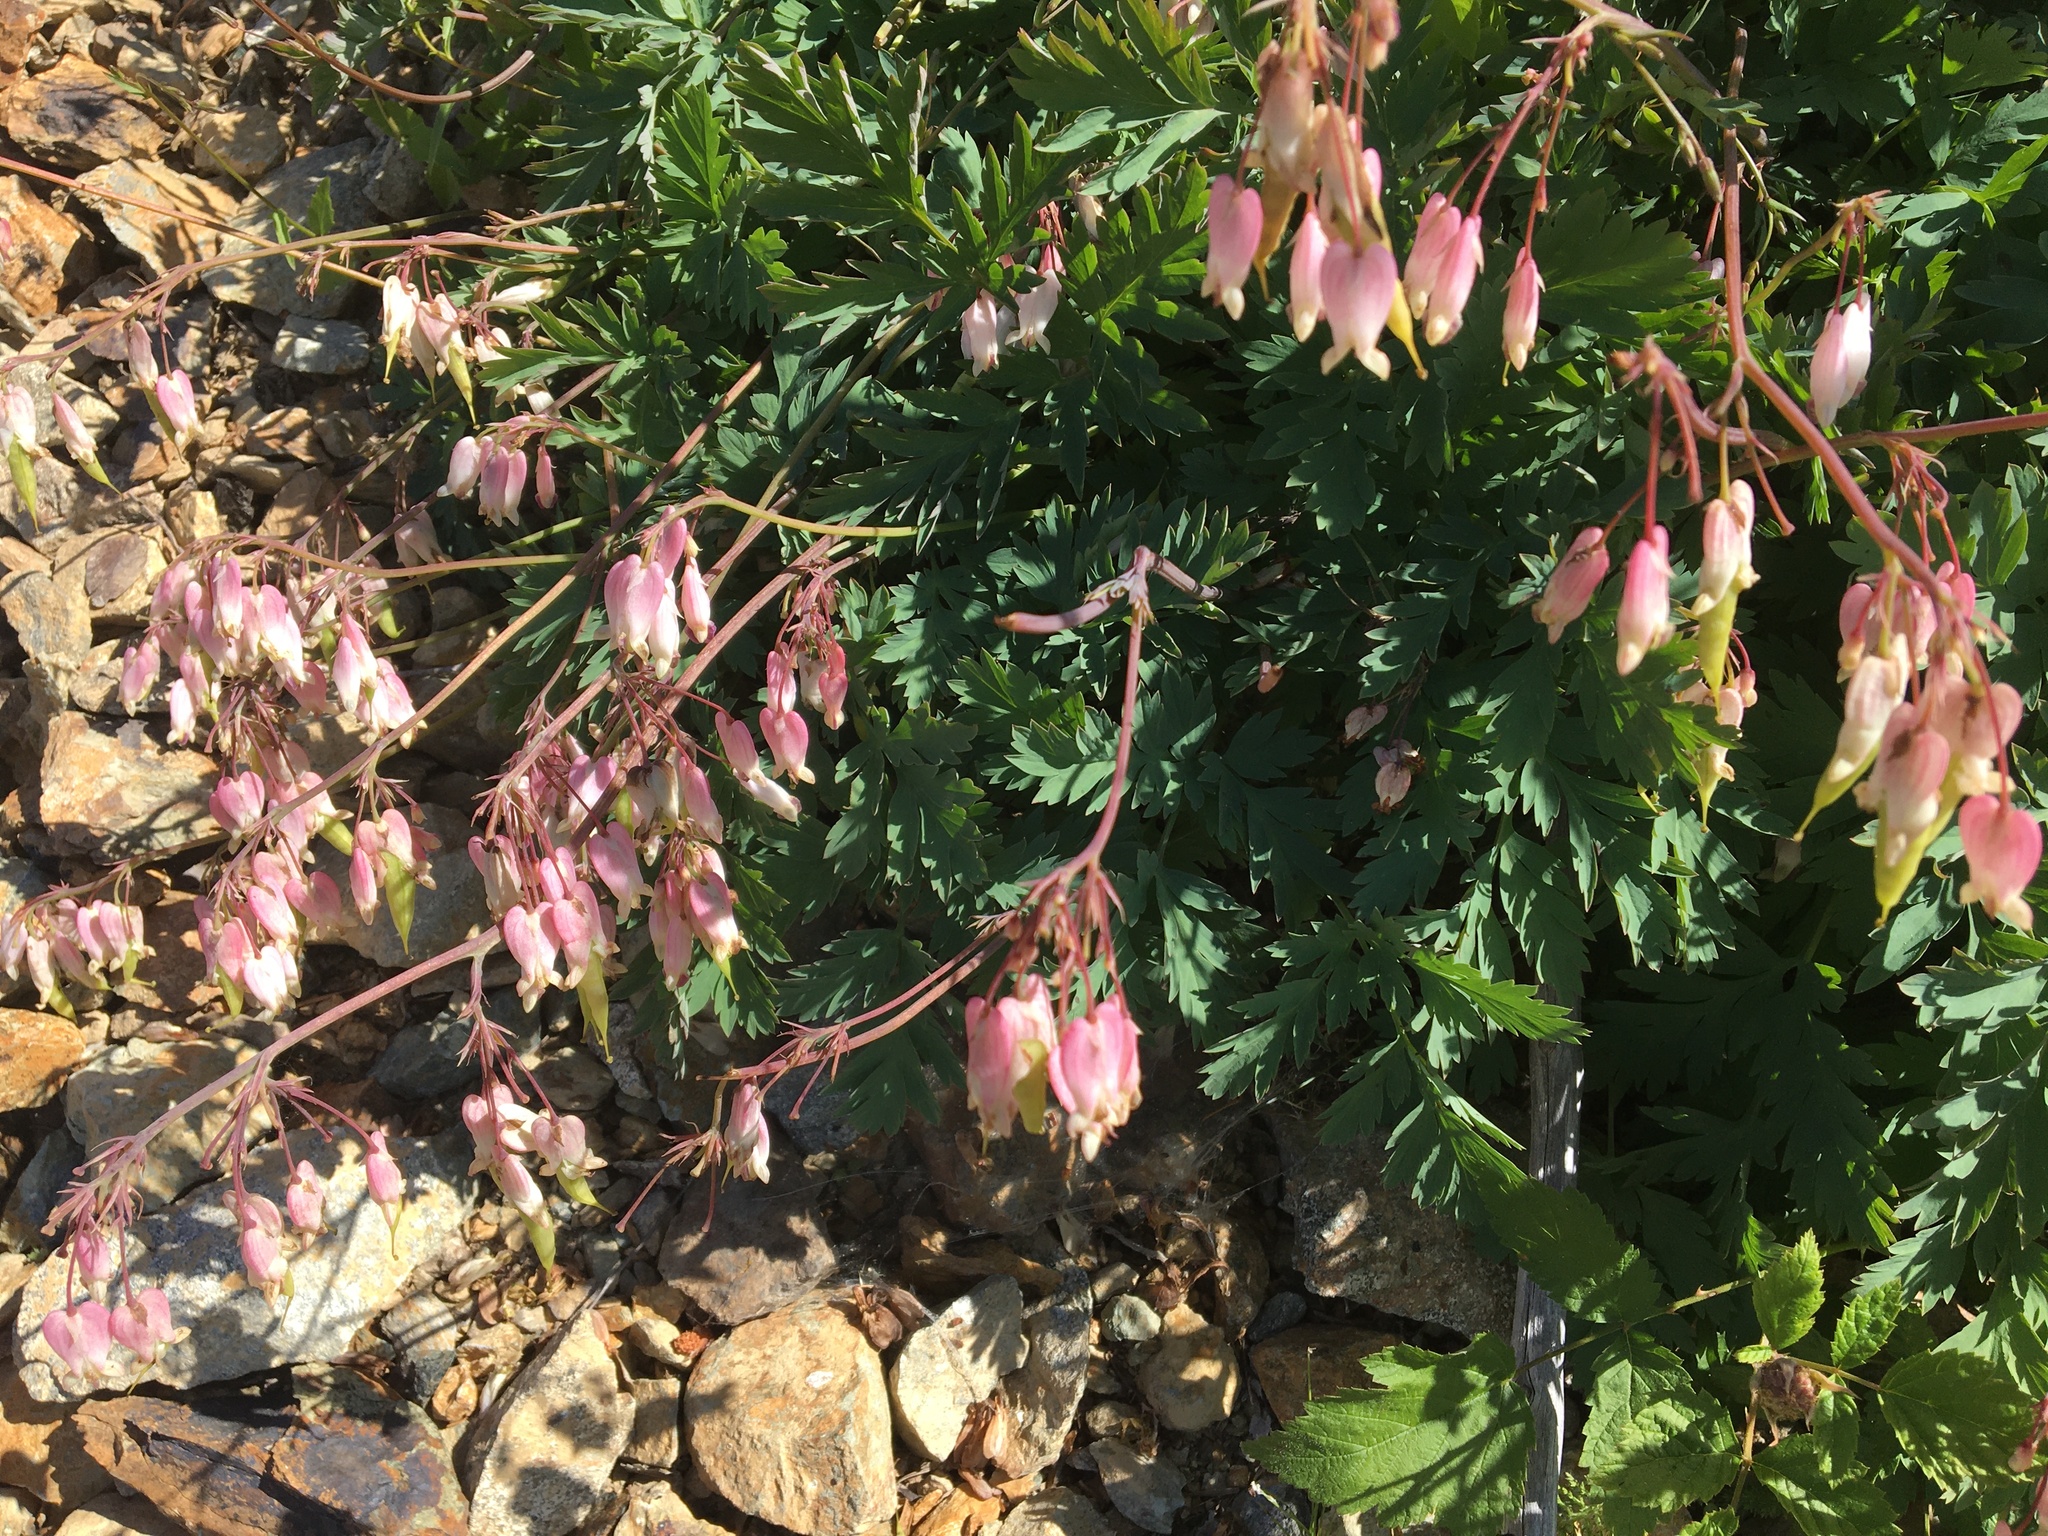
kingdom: Plantae
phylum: Tracheophyta
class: Magnoliopsida
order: Ranunculales
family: Papaveraceae
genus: Dicentra
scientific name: Dicentra formosa
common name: Bleeding-heart
